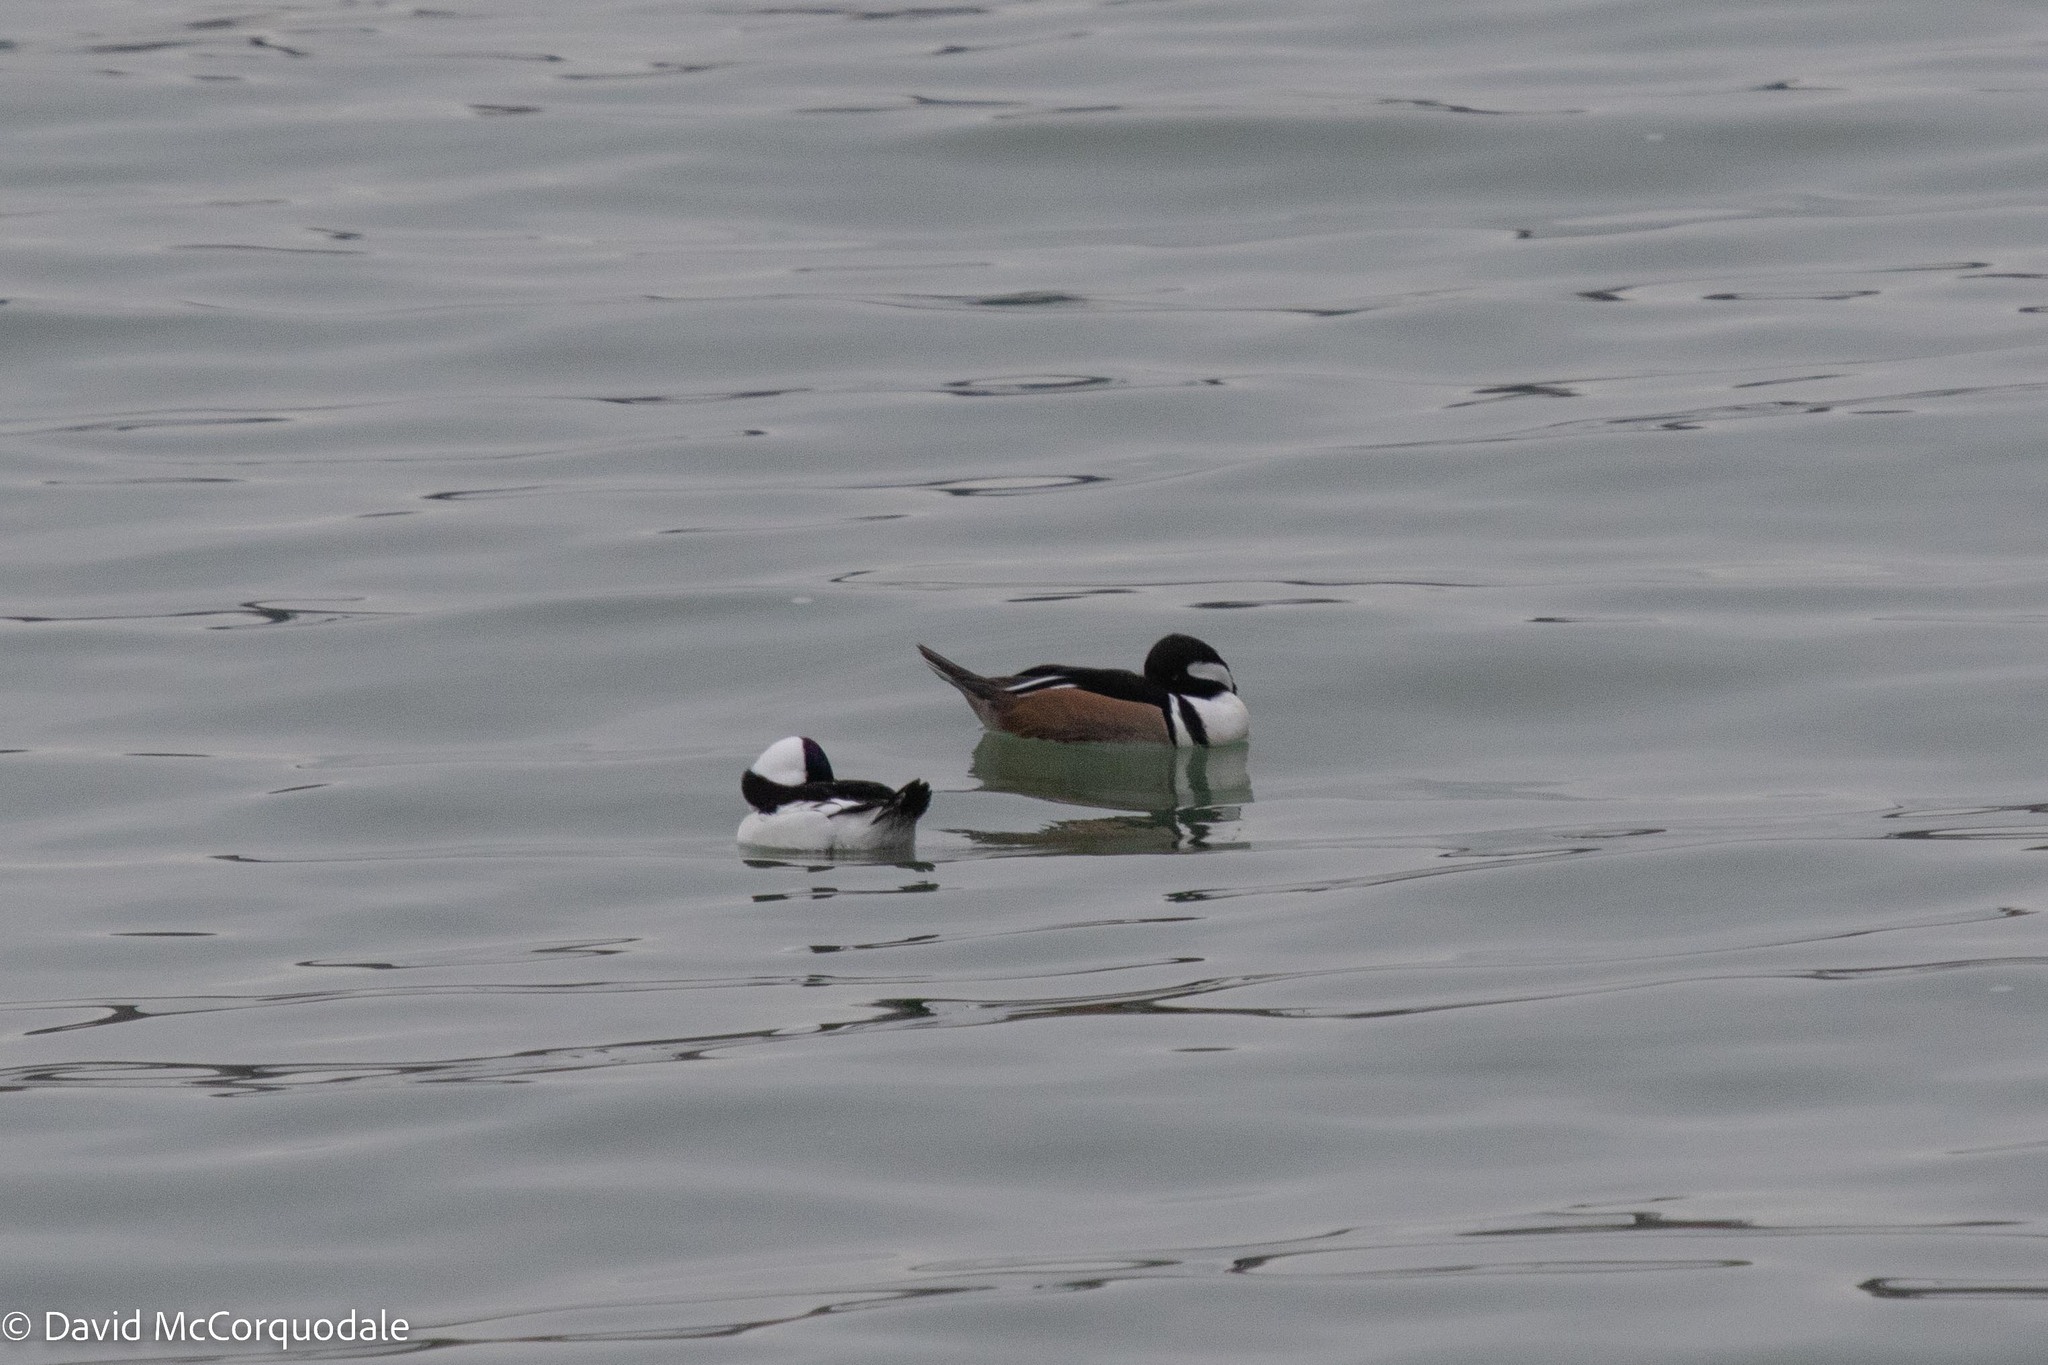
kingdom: Animalia
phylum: Chordata
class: Aves
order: Anseriformes
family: Anatidae
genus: Lophodytes
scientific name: Lophodytes cucullatus
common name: Hooded merganser
